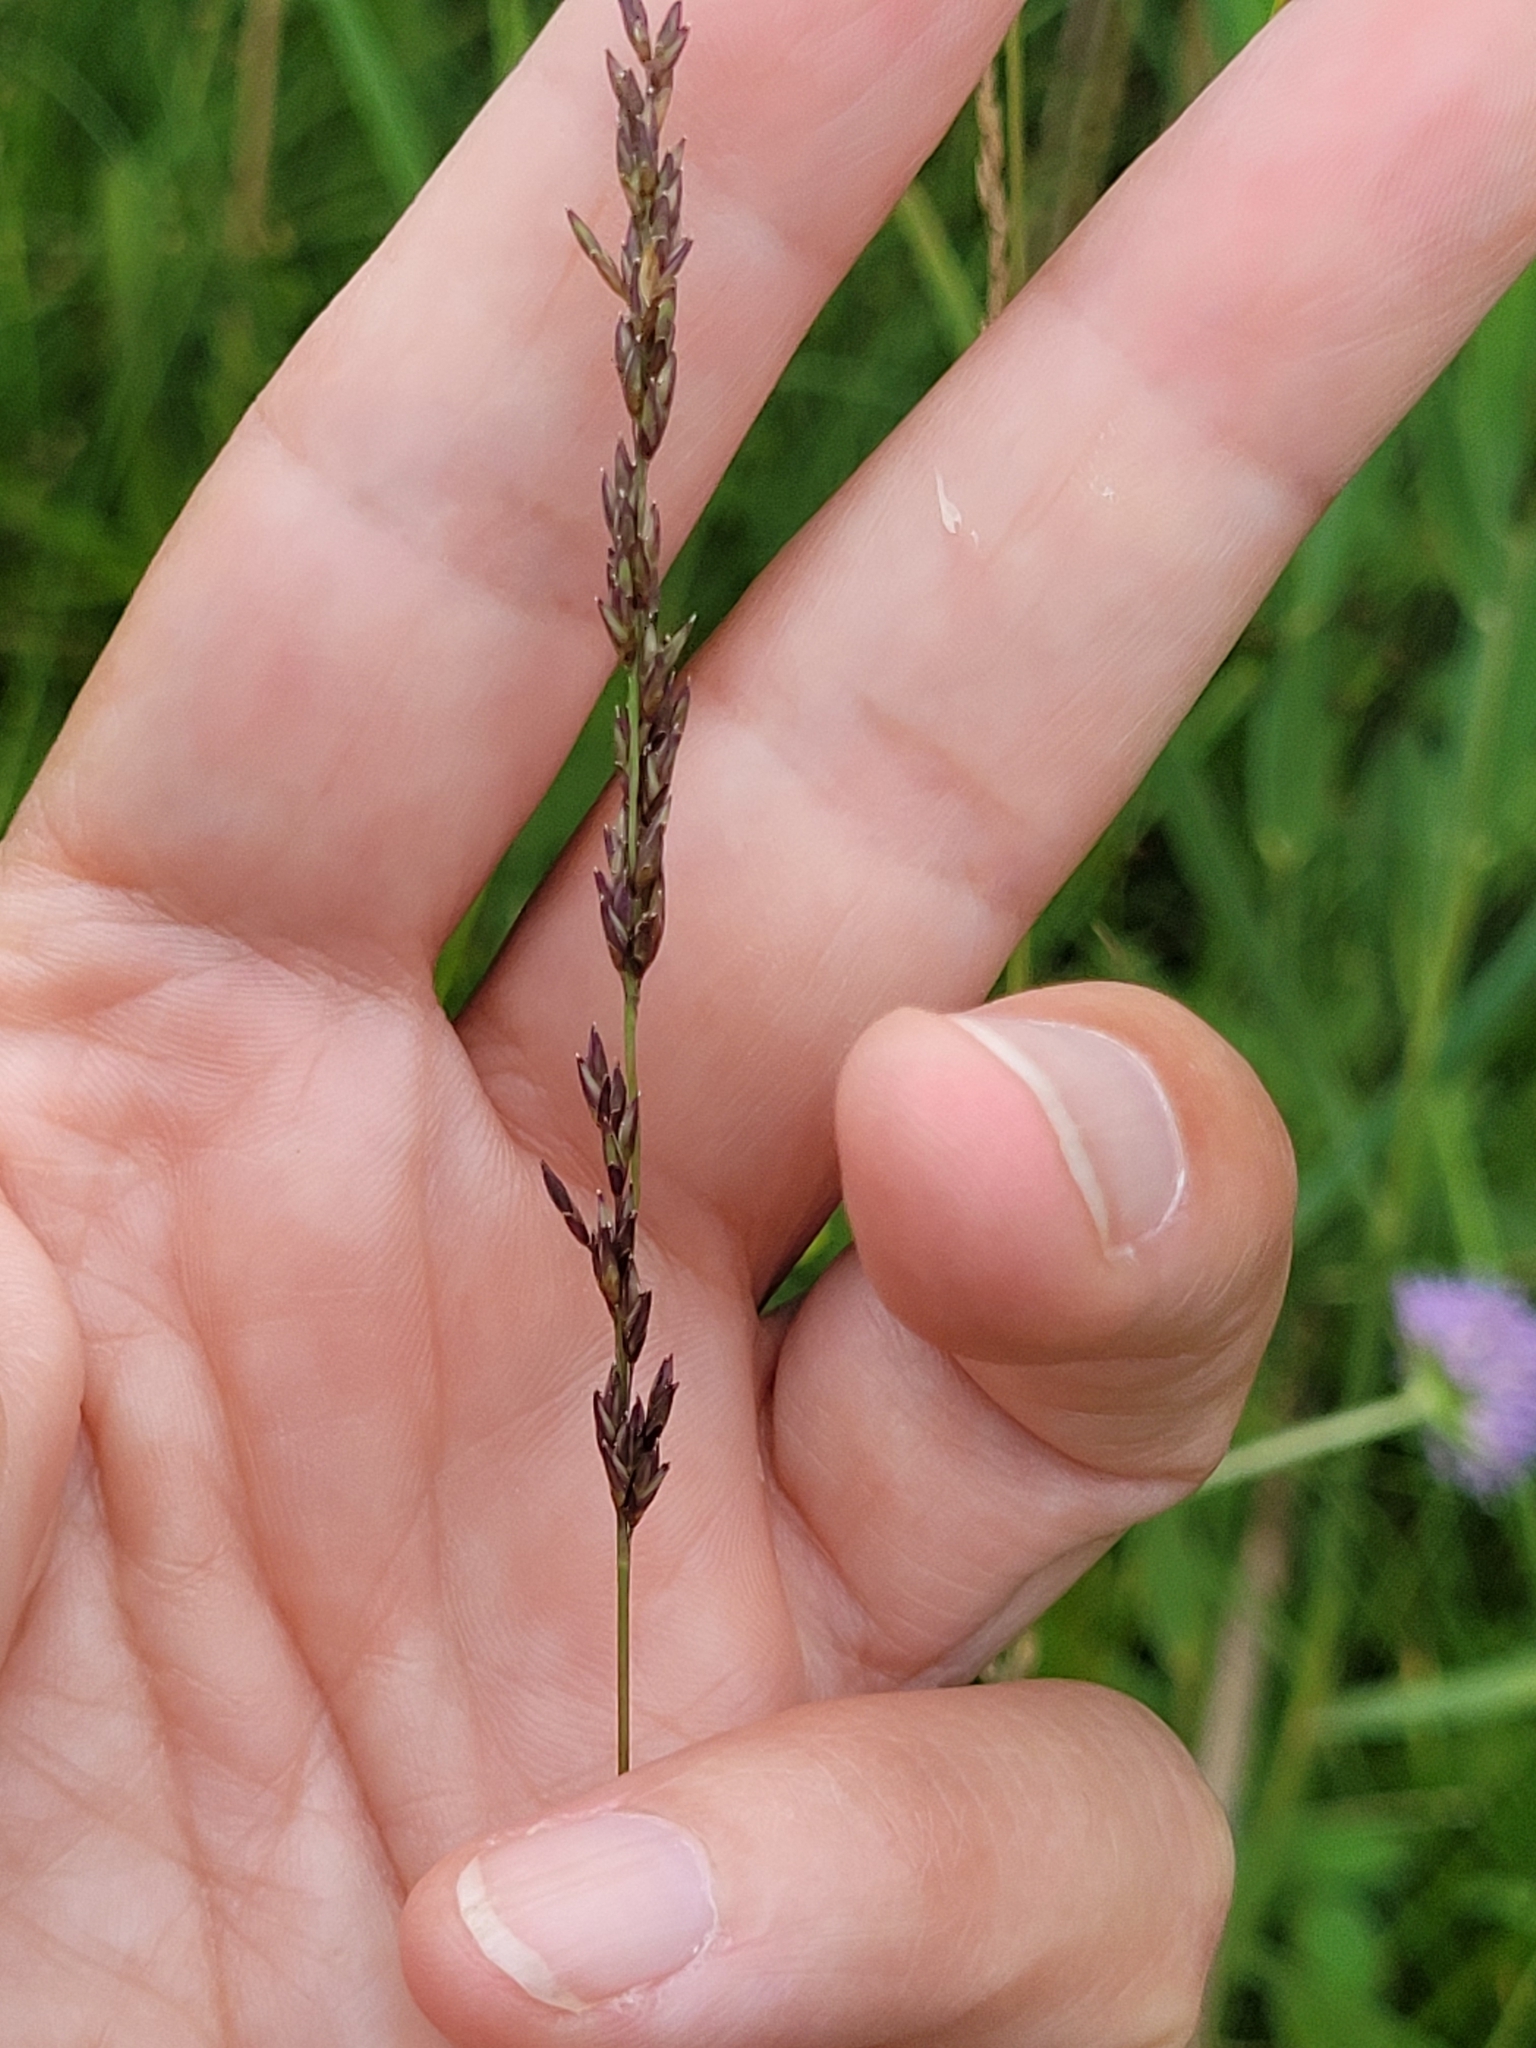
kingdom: Plantae
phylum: Tracheophyta
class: Liliopsida
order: Poales
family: Poaceae
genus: Molinia
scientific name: Molinia caerulea
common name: Purple moor-grass
